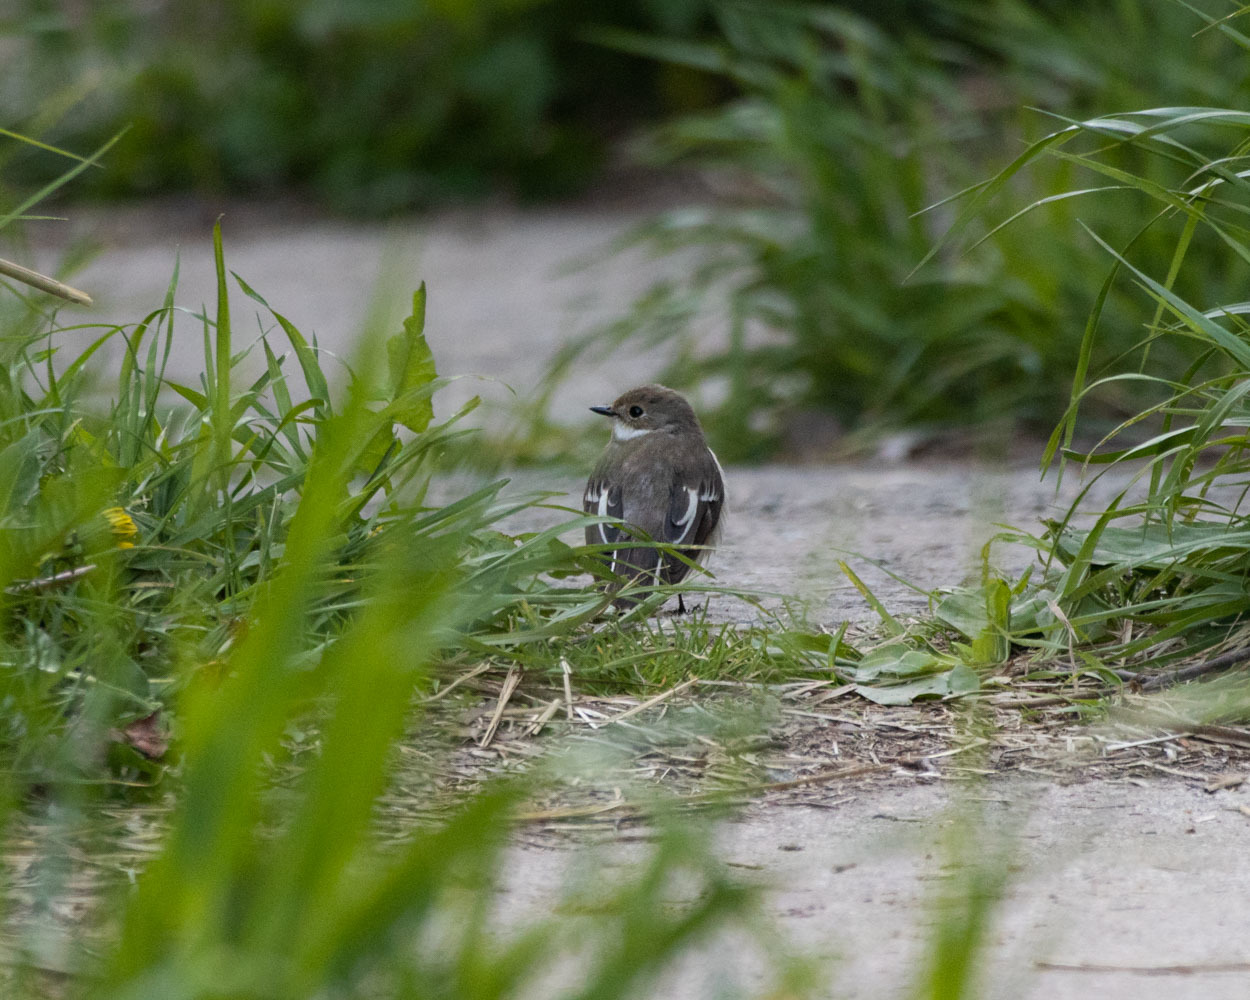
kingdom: Animalia
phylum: Chordata
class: Aves
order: Passeriformes
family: Muscicapidae
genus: Ficedula
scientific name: Ficedula hypoleuca
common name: European pied flycatcher
